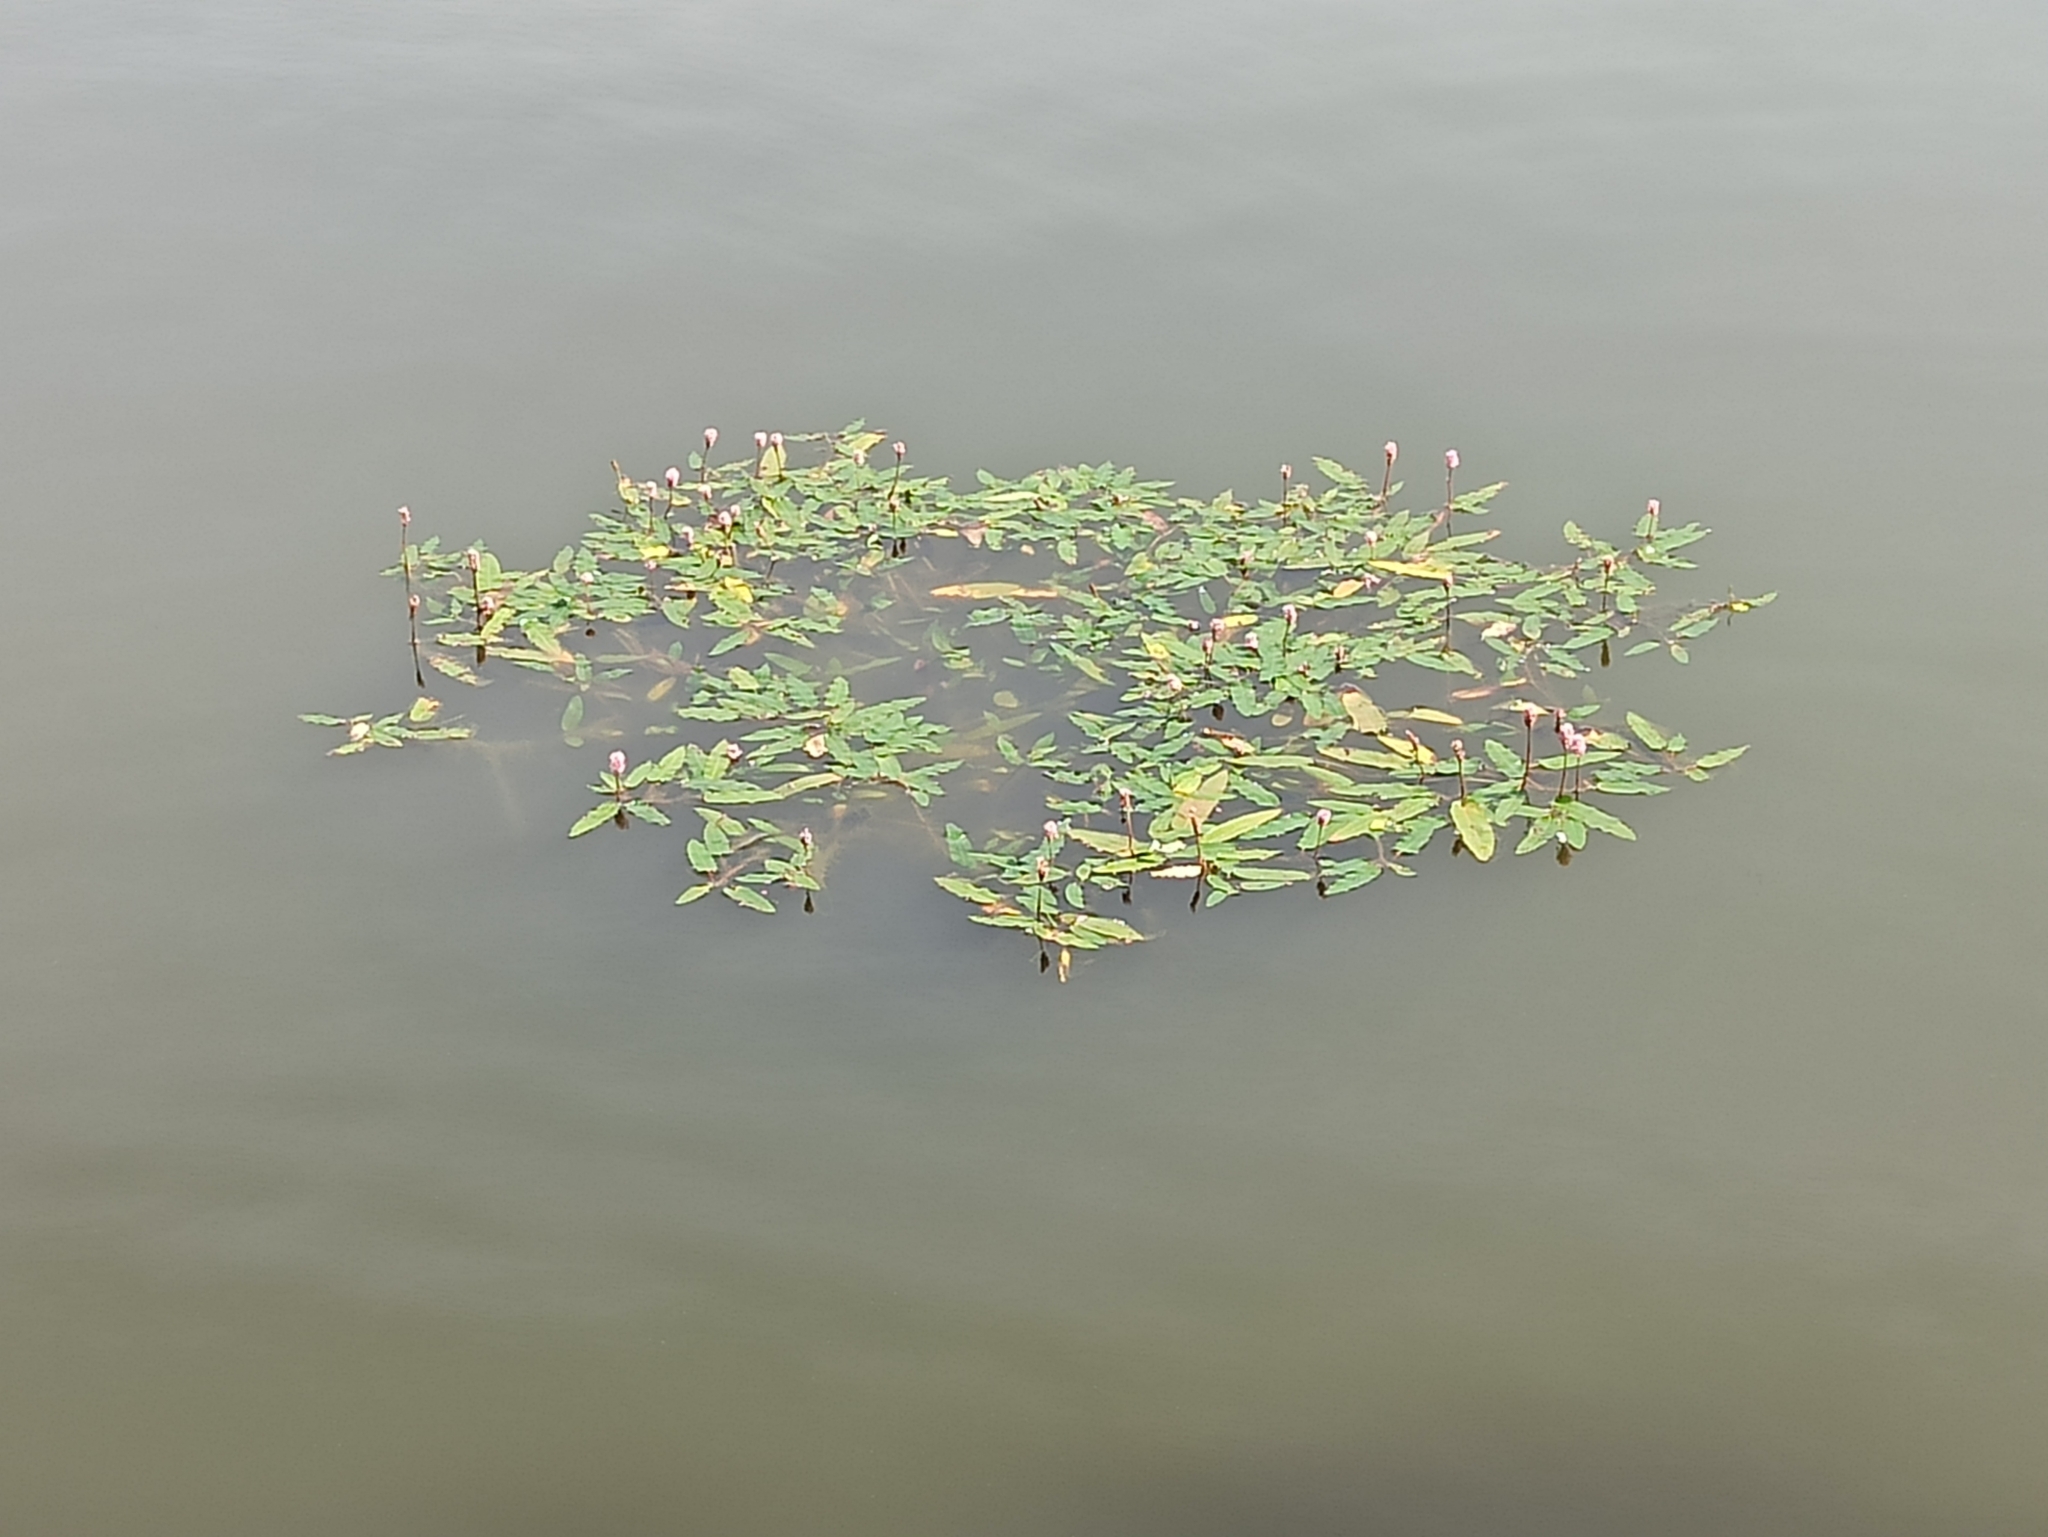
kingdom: Plantae
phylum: Tracheophyta
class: Magnoliopsida
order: Caryophyllales
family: Polygonaceae
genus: Persicaria
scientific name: Persicaria amphibia
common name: Amphibious bistort
